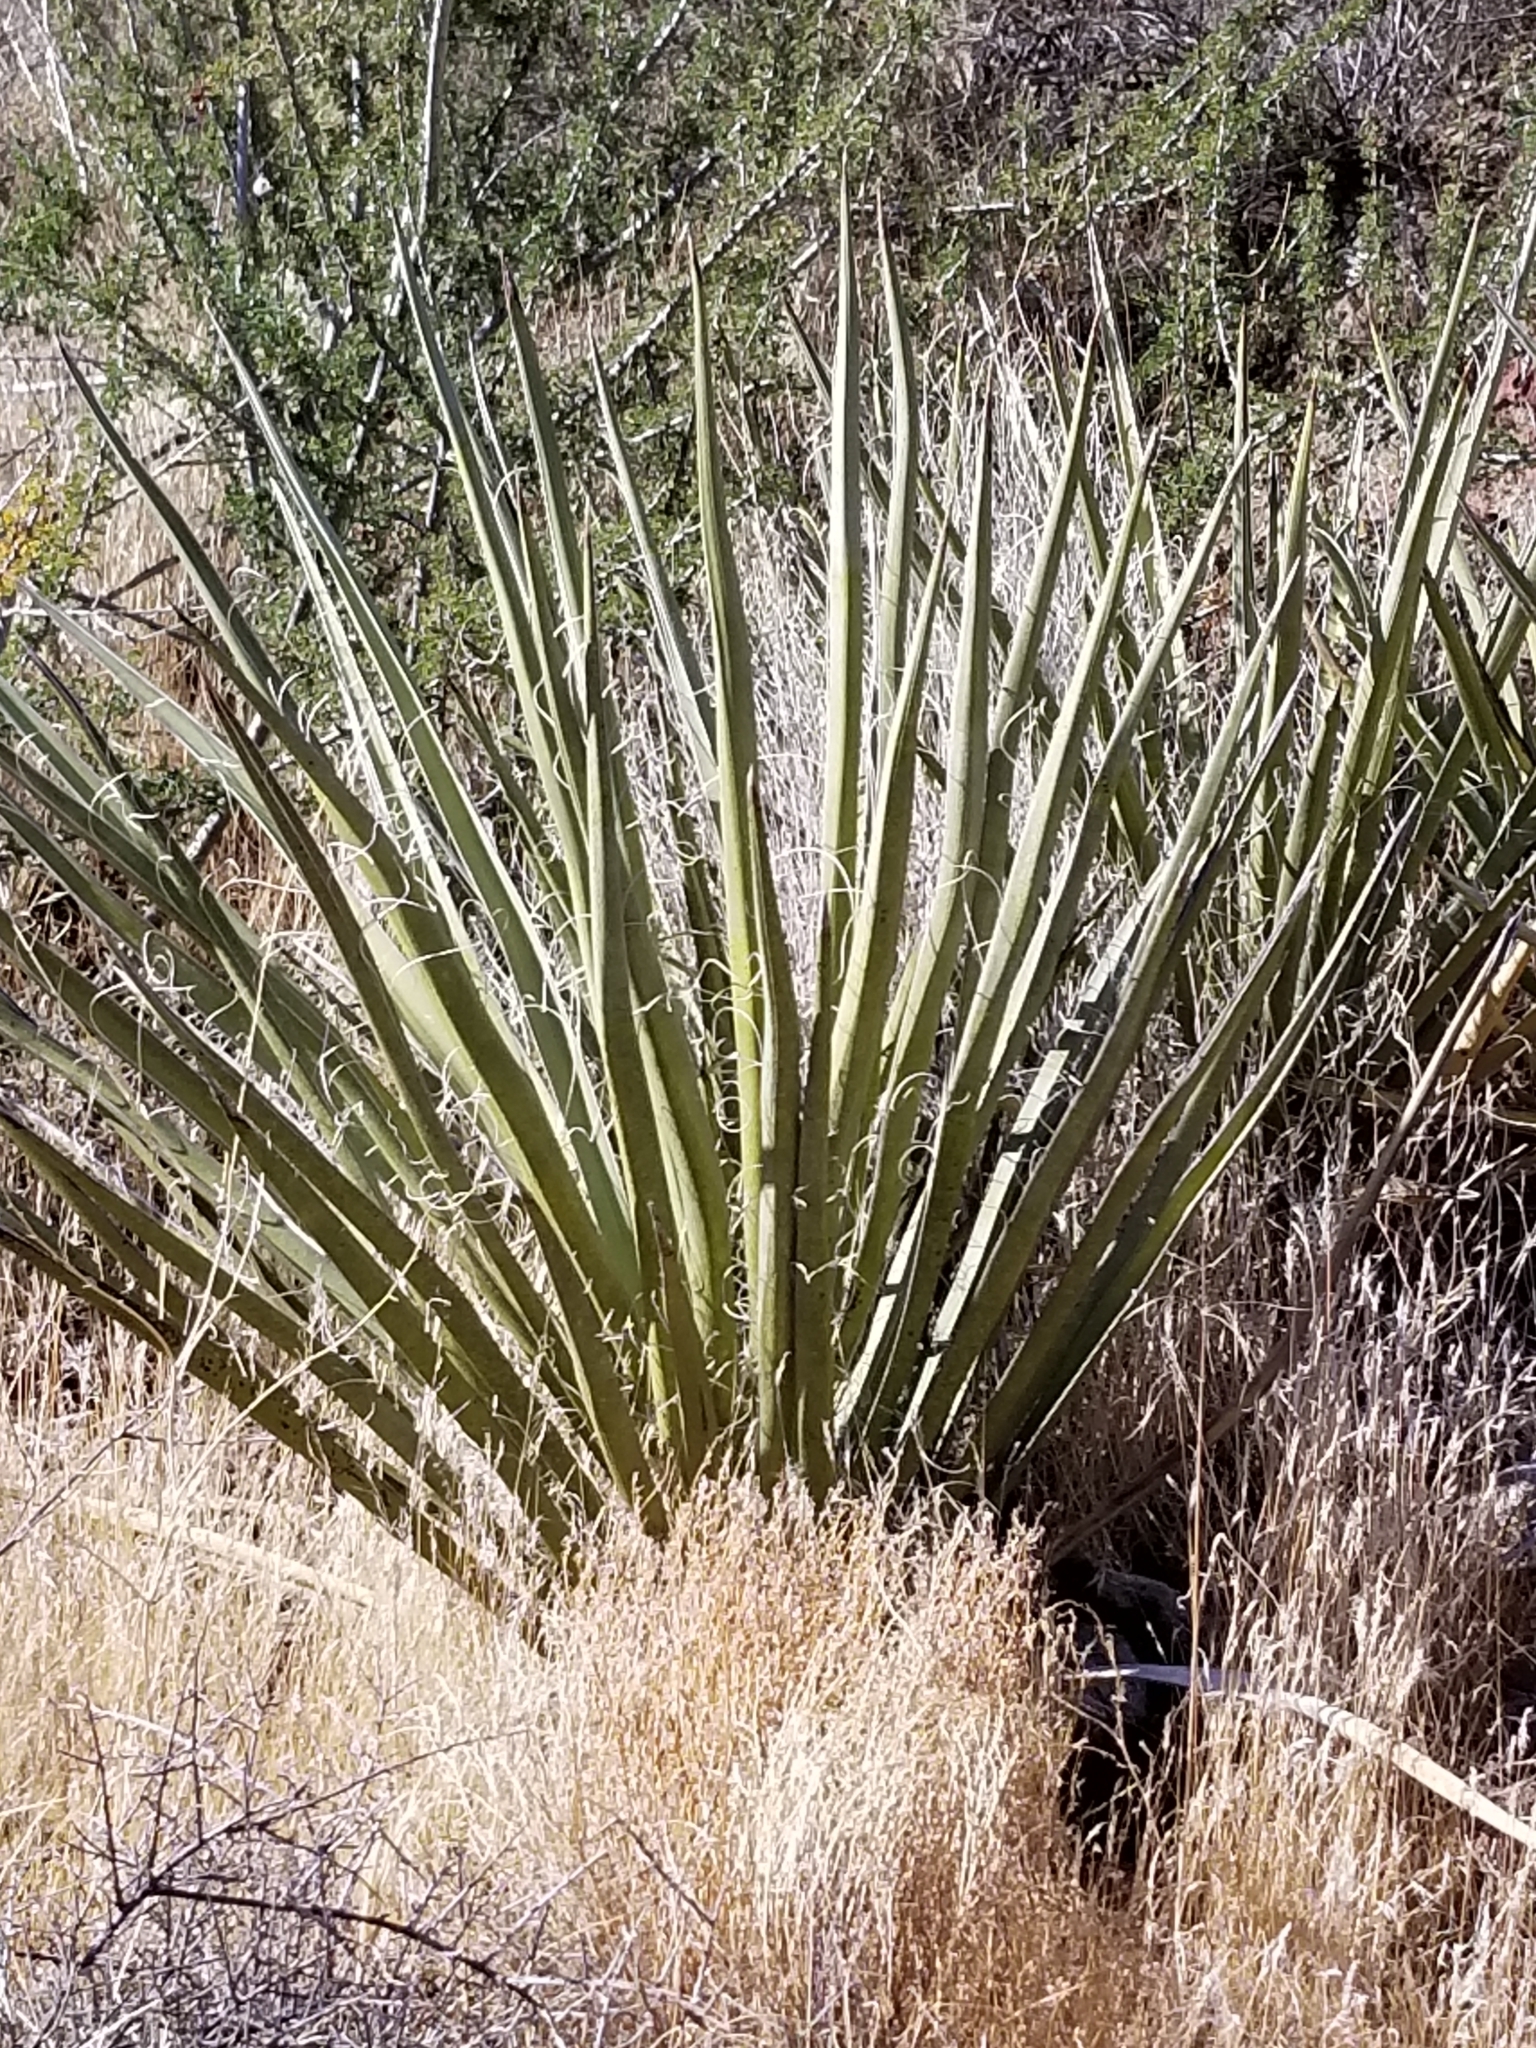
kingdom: Plantae
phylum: Tracheophyta
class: Liliopsida
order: Asparagales
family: Asparagaceae
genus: Yucca
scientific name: Yucca schidigera
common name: Mojave yucca
